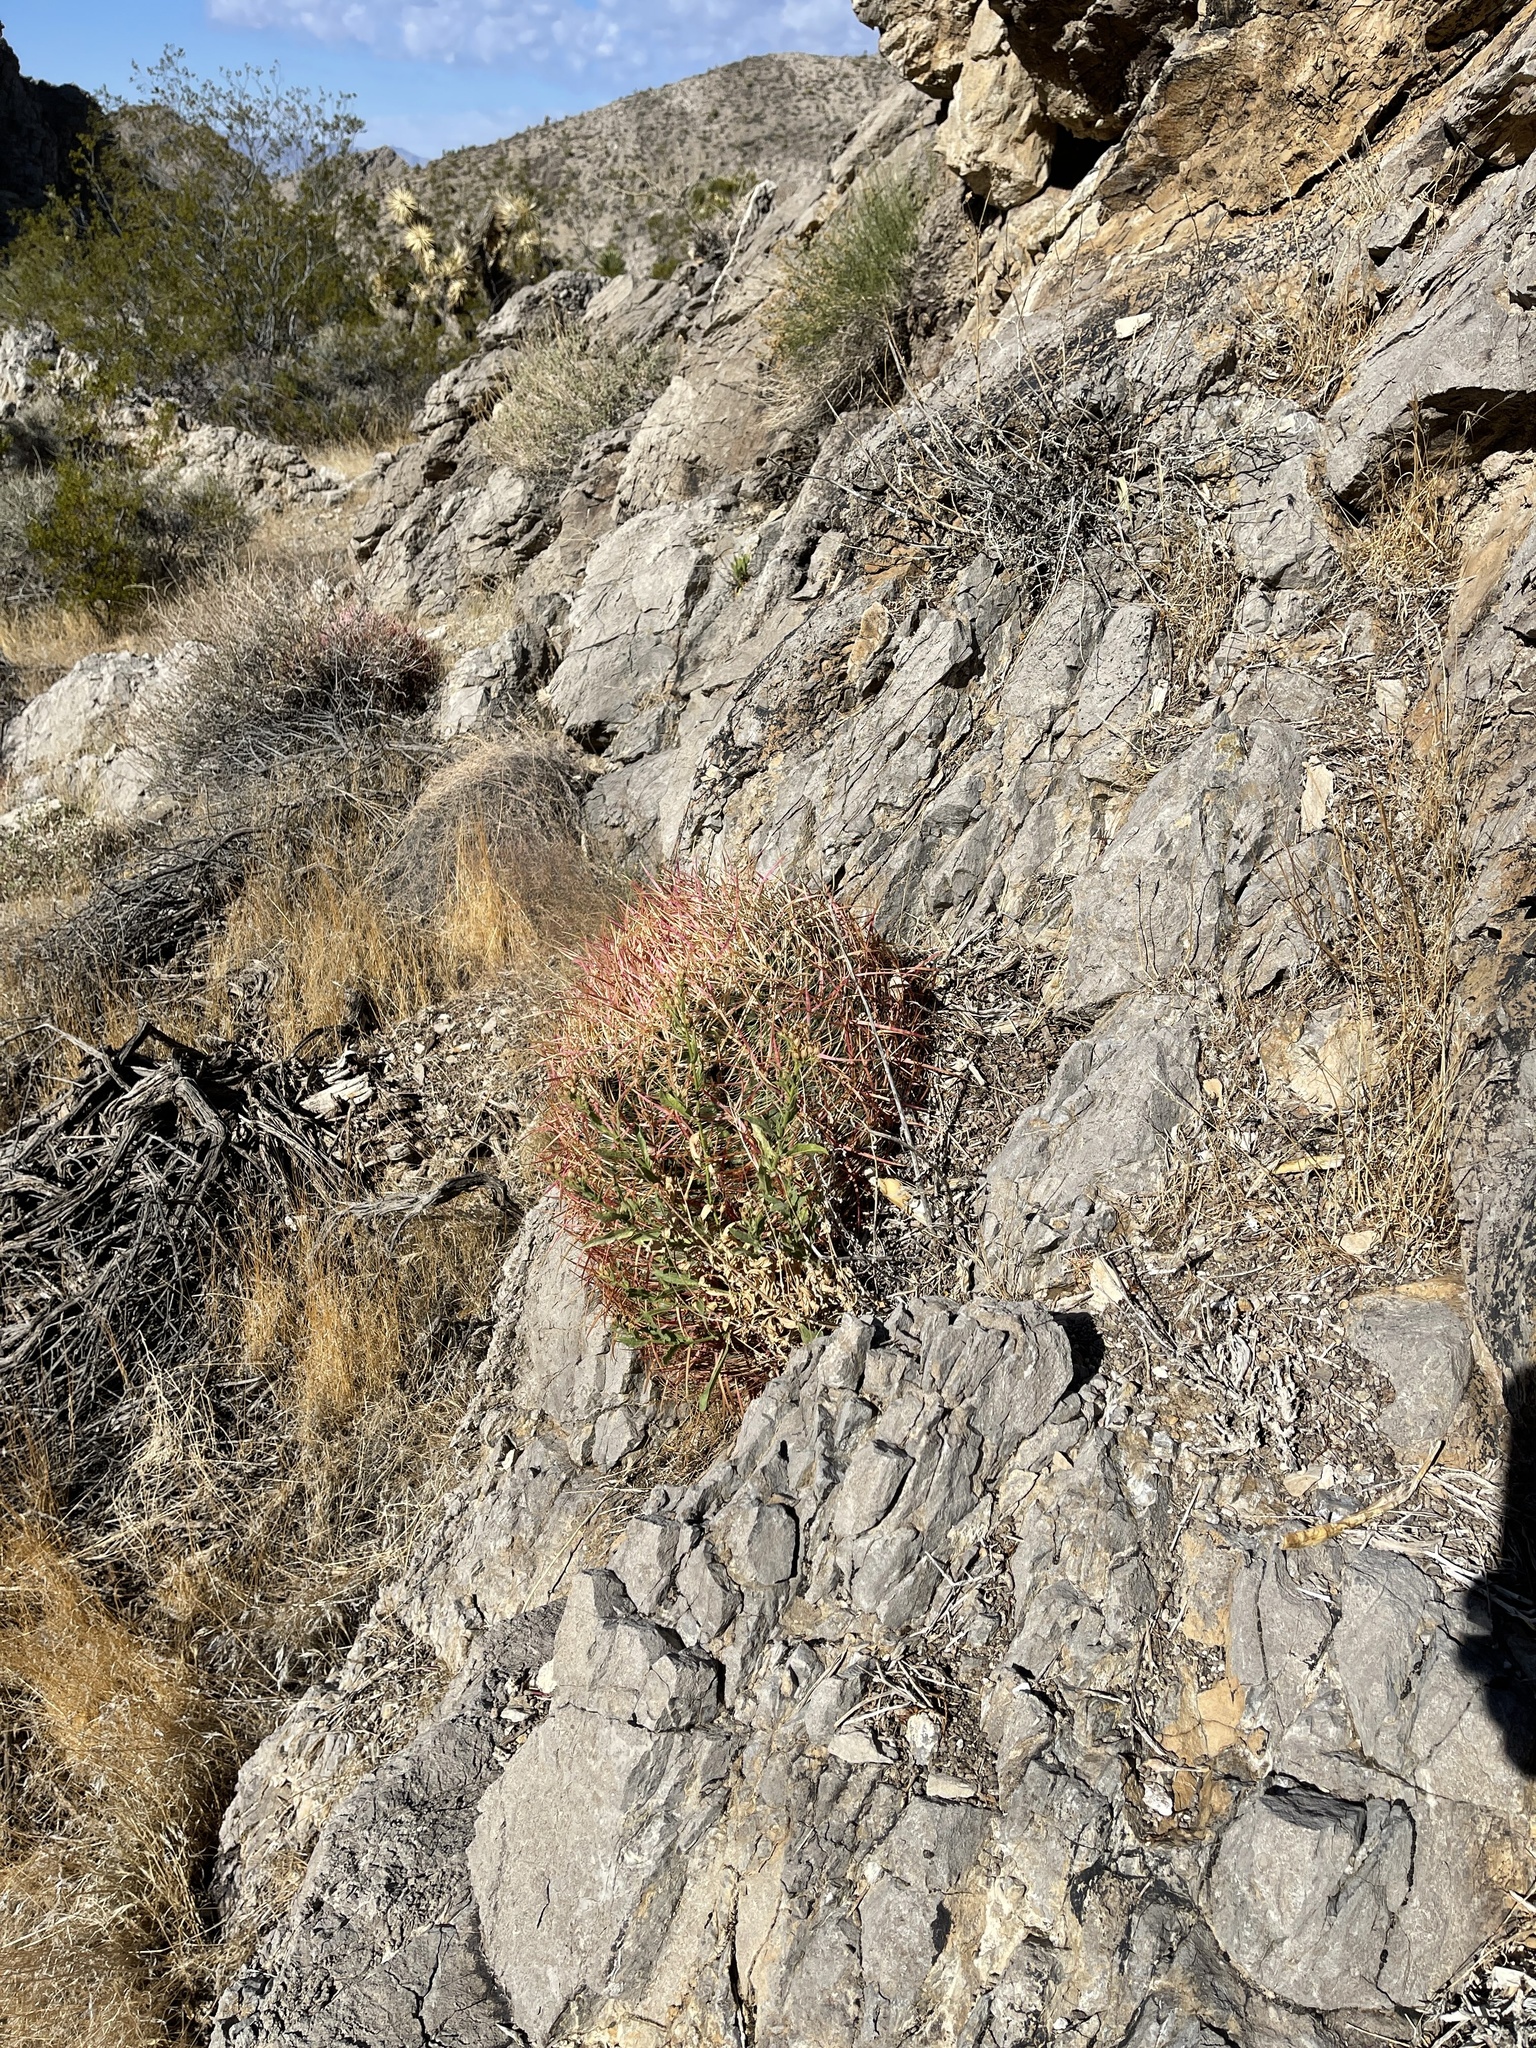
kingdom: Plantae
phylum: Tracheophyta
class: Magnoliopsida
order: Caryophyllales
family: Cactaceae
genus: Ferocactus
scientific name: Ferocactus cylindraceus
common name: California barrel cactus
